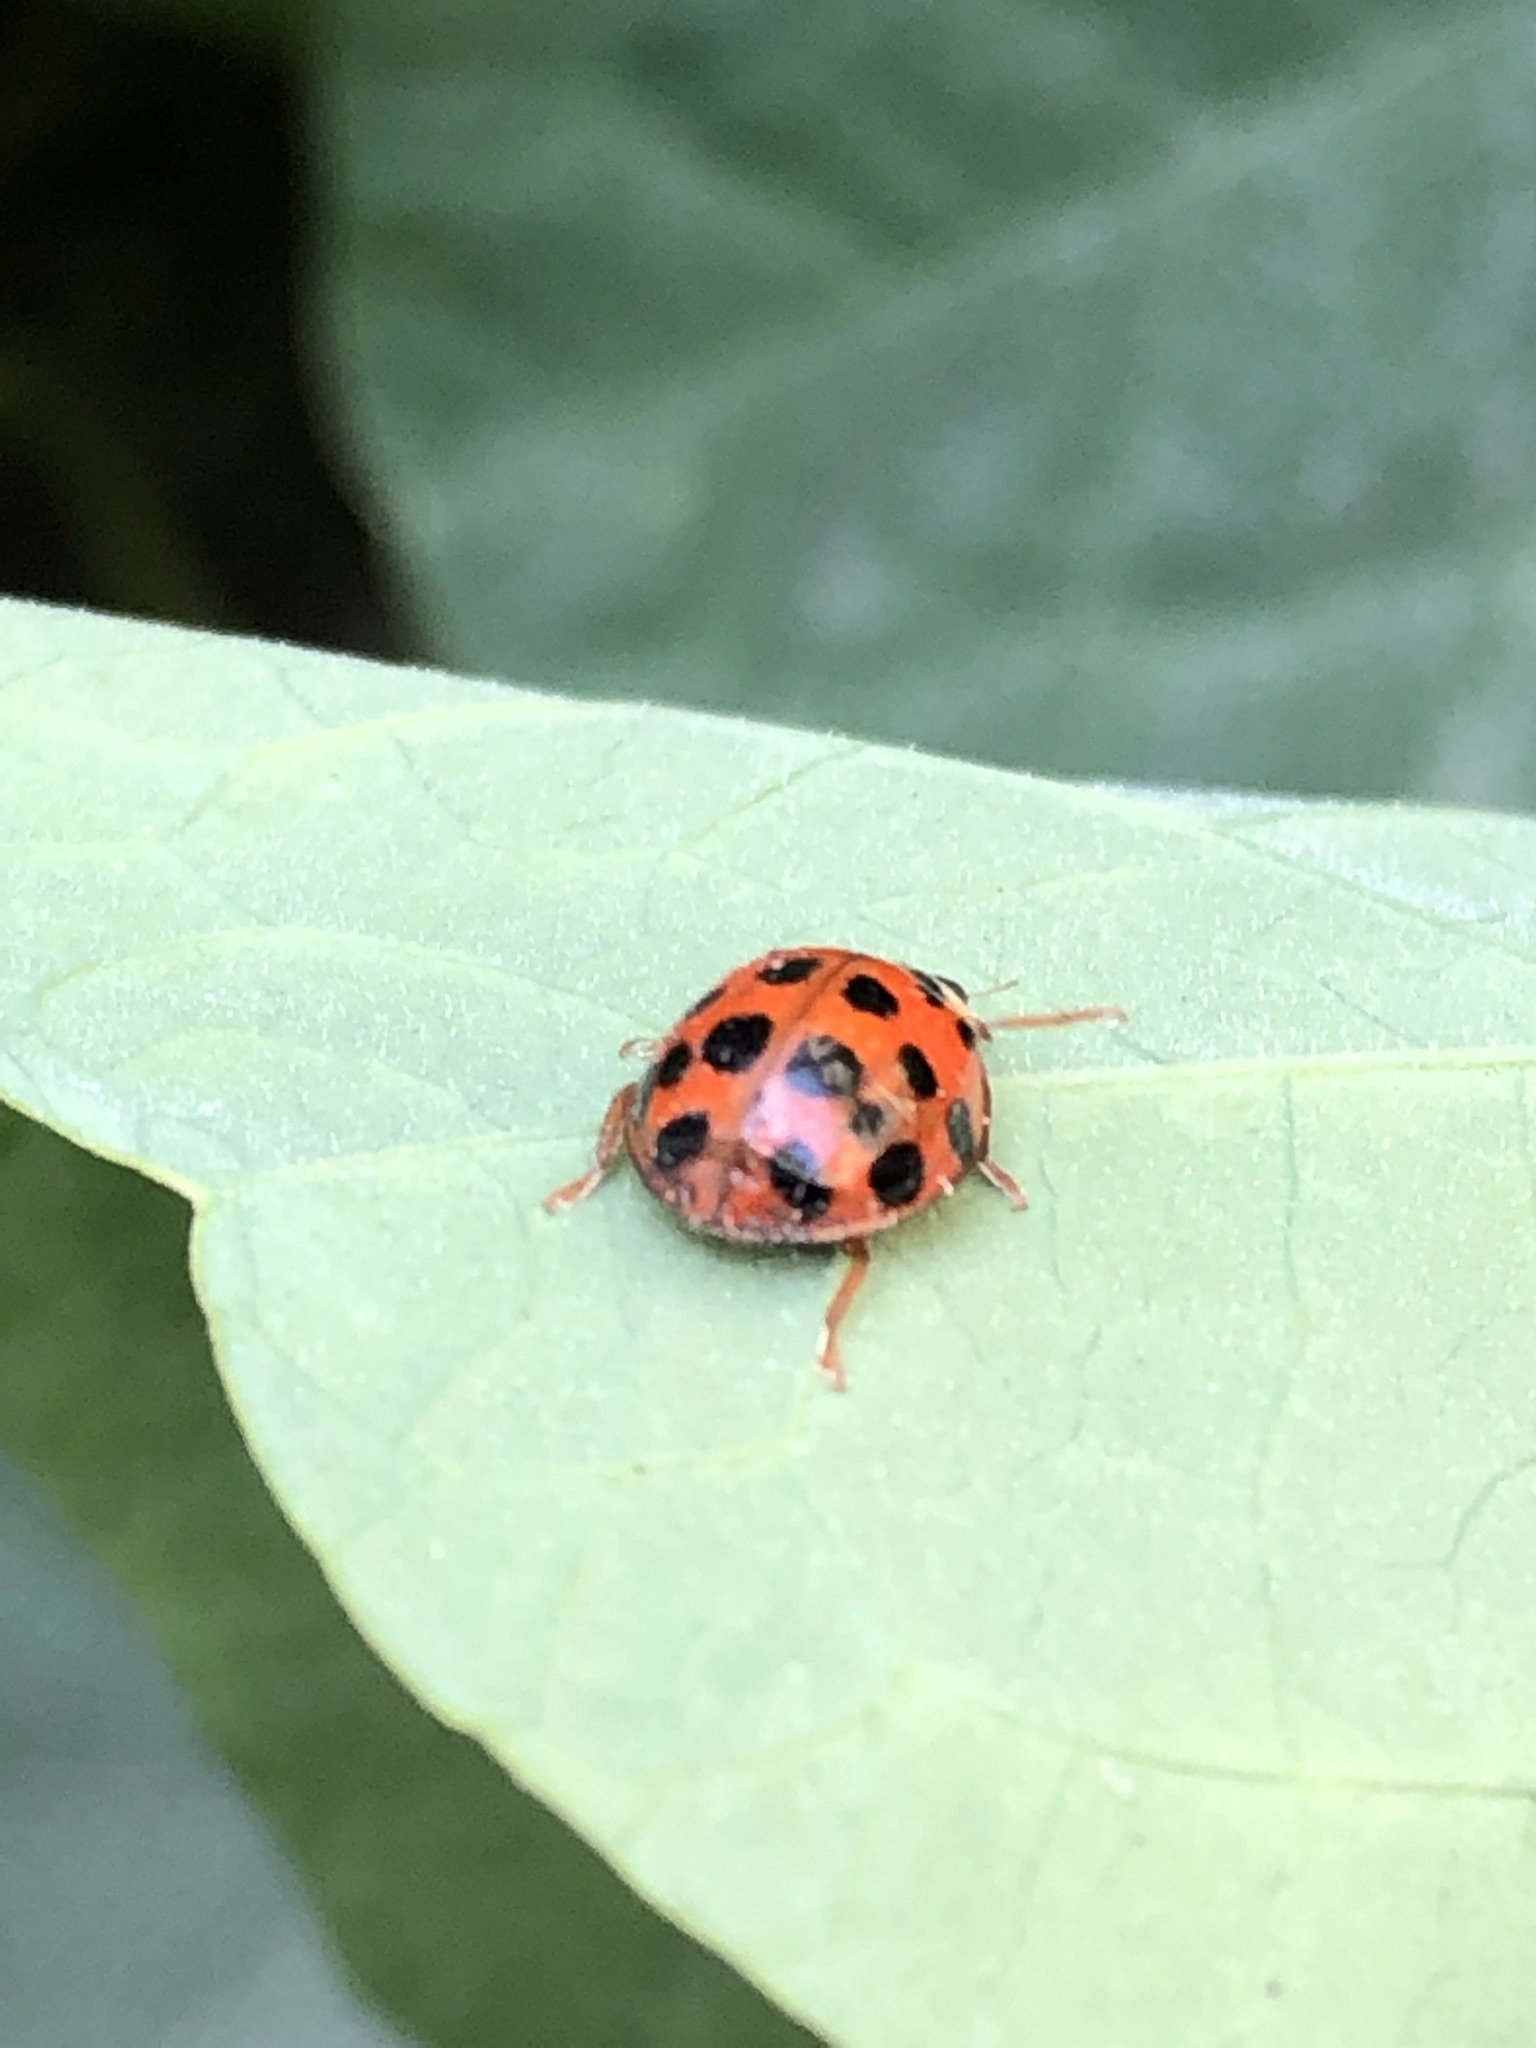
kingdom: Animalia
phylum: Arthropoda
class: Insecta
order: Coleoptera
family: Coccinellidae
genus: Harmonia
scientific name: Harmonia axyridis
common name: Harlequin ladybird
